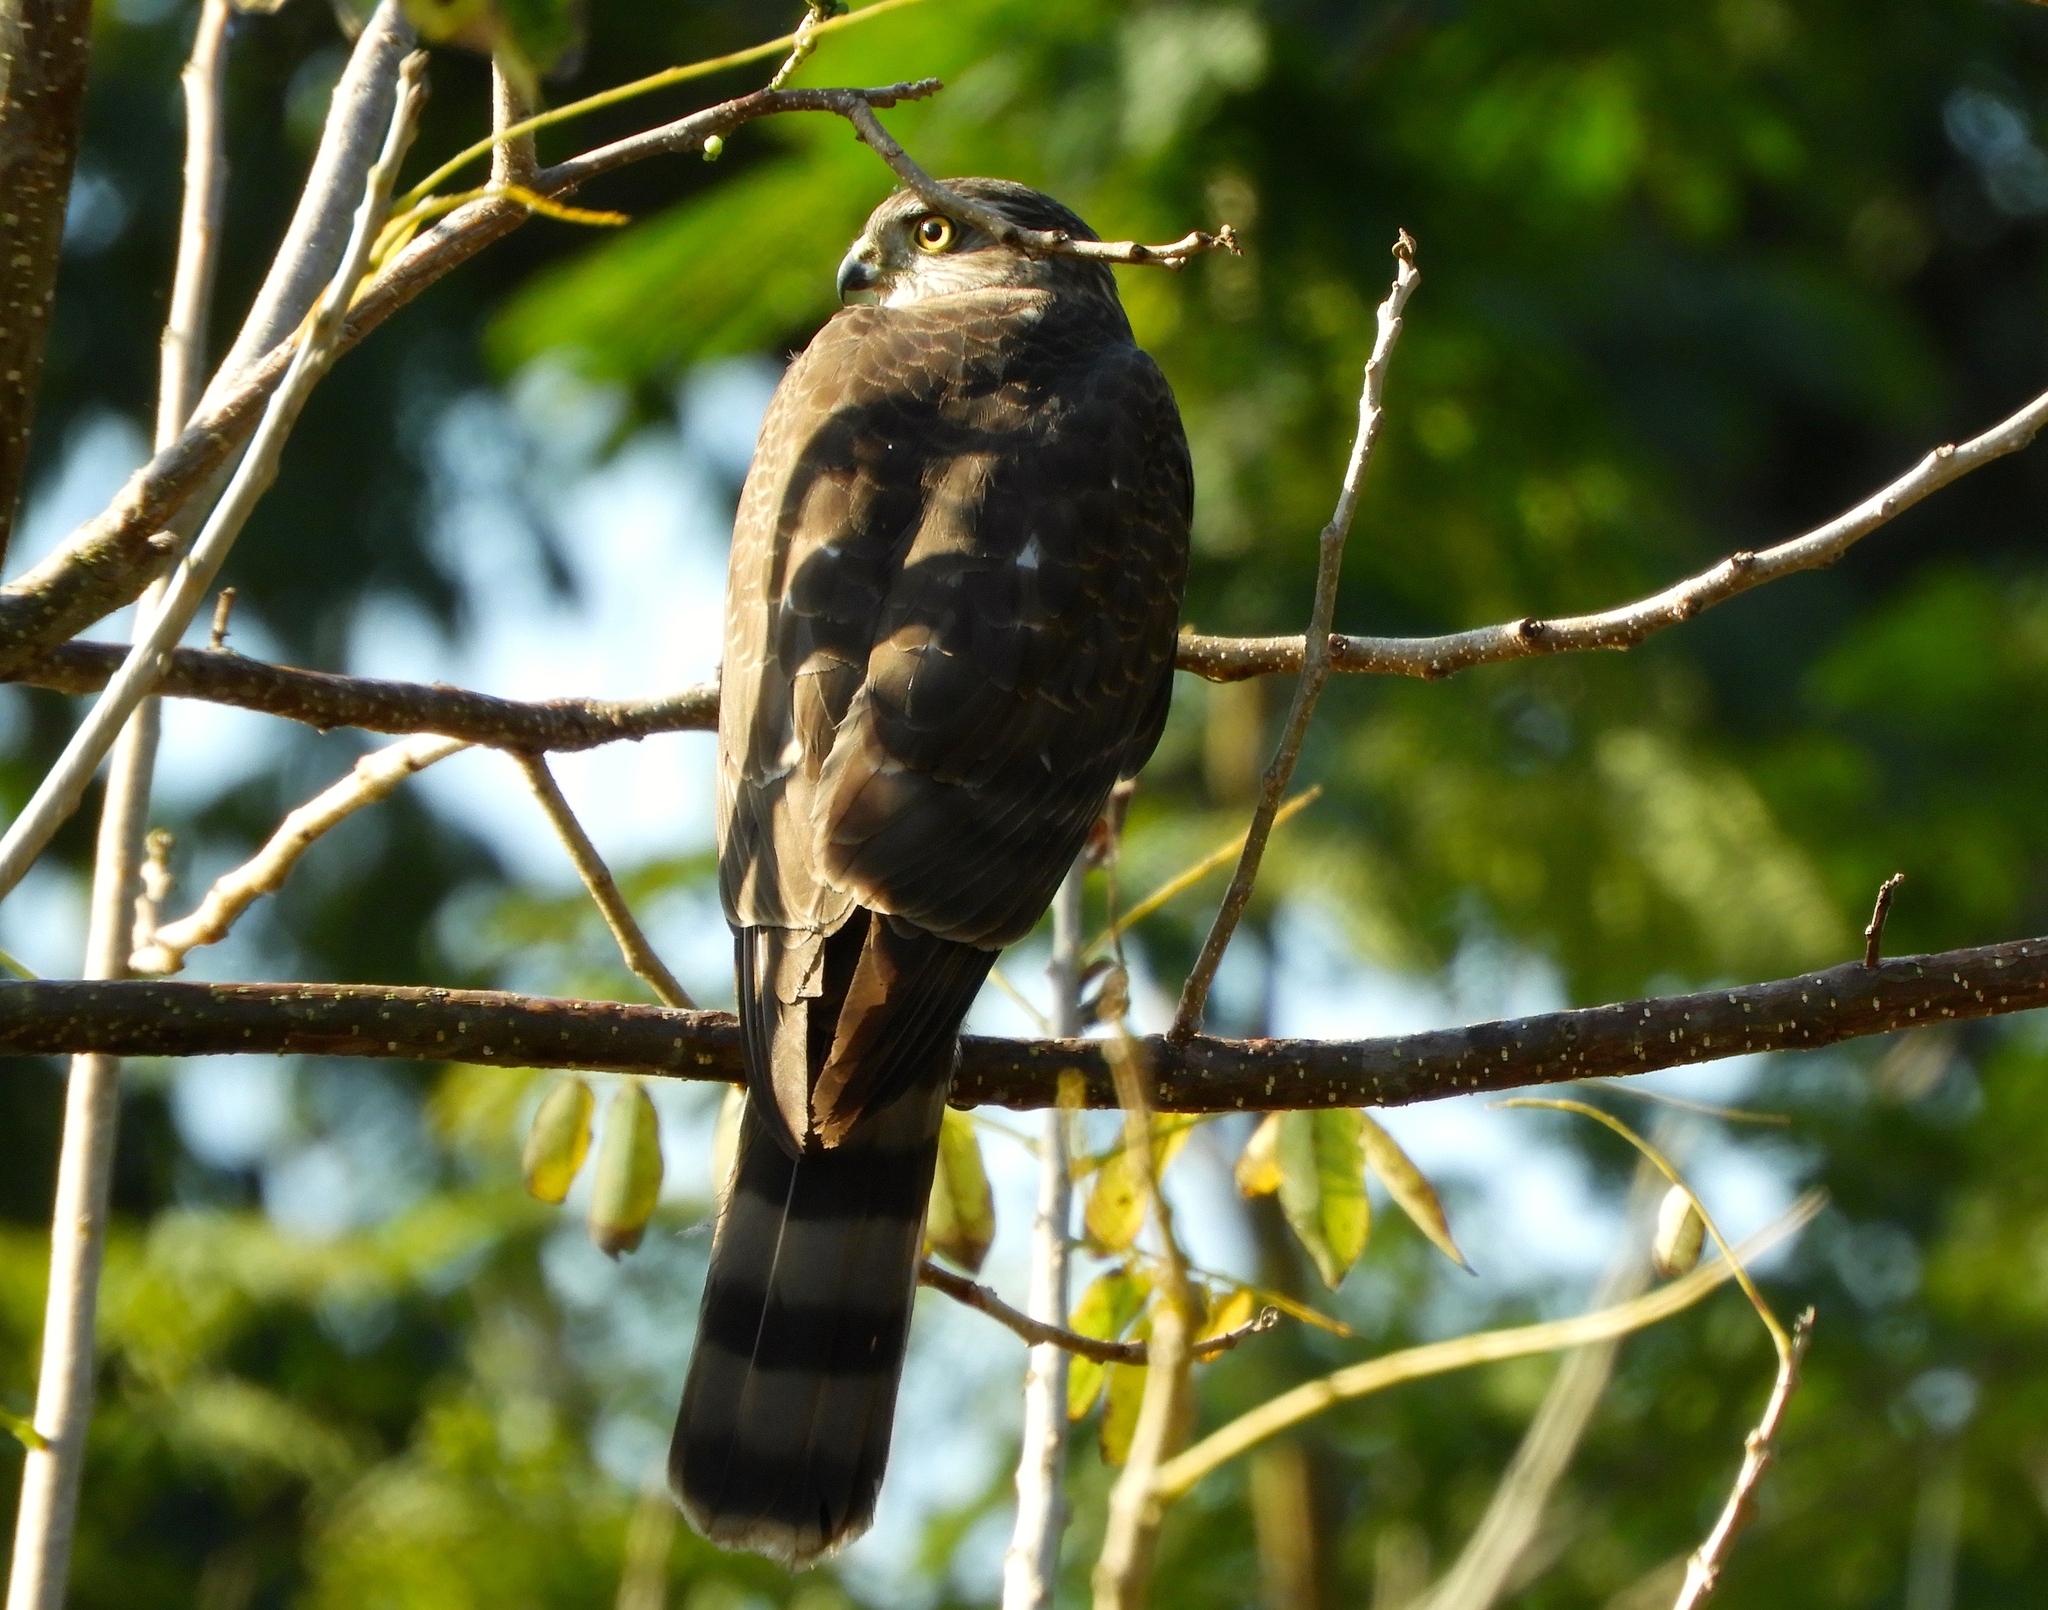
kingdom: Animalia
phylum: Chordata
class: Aves
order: Accipitriformes
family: Accipitridae
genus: Accipiter
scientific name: Accipiter striatus
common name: Sharp-shinned hawk
